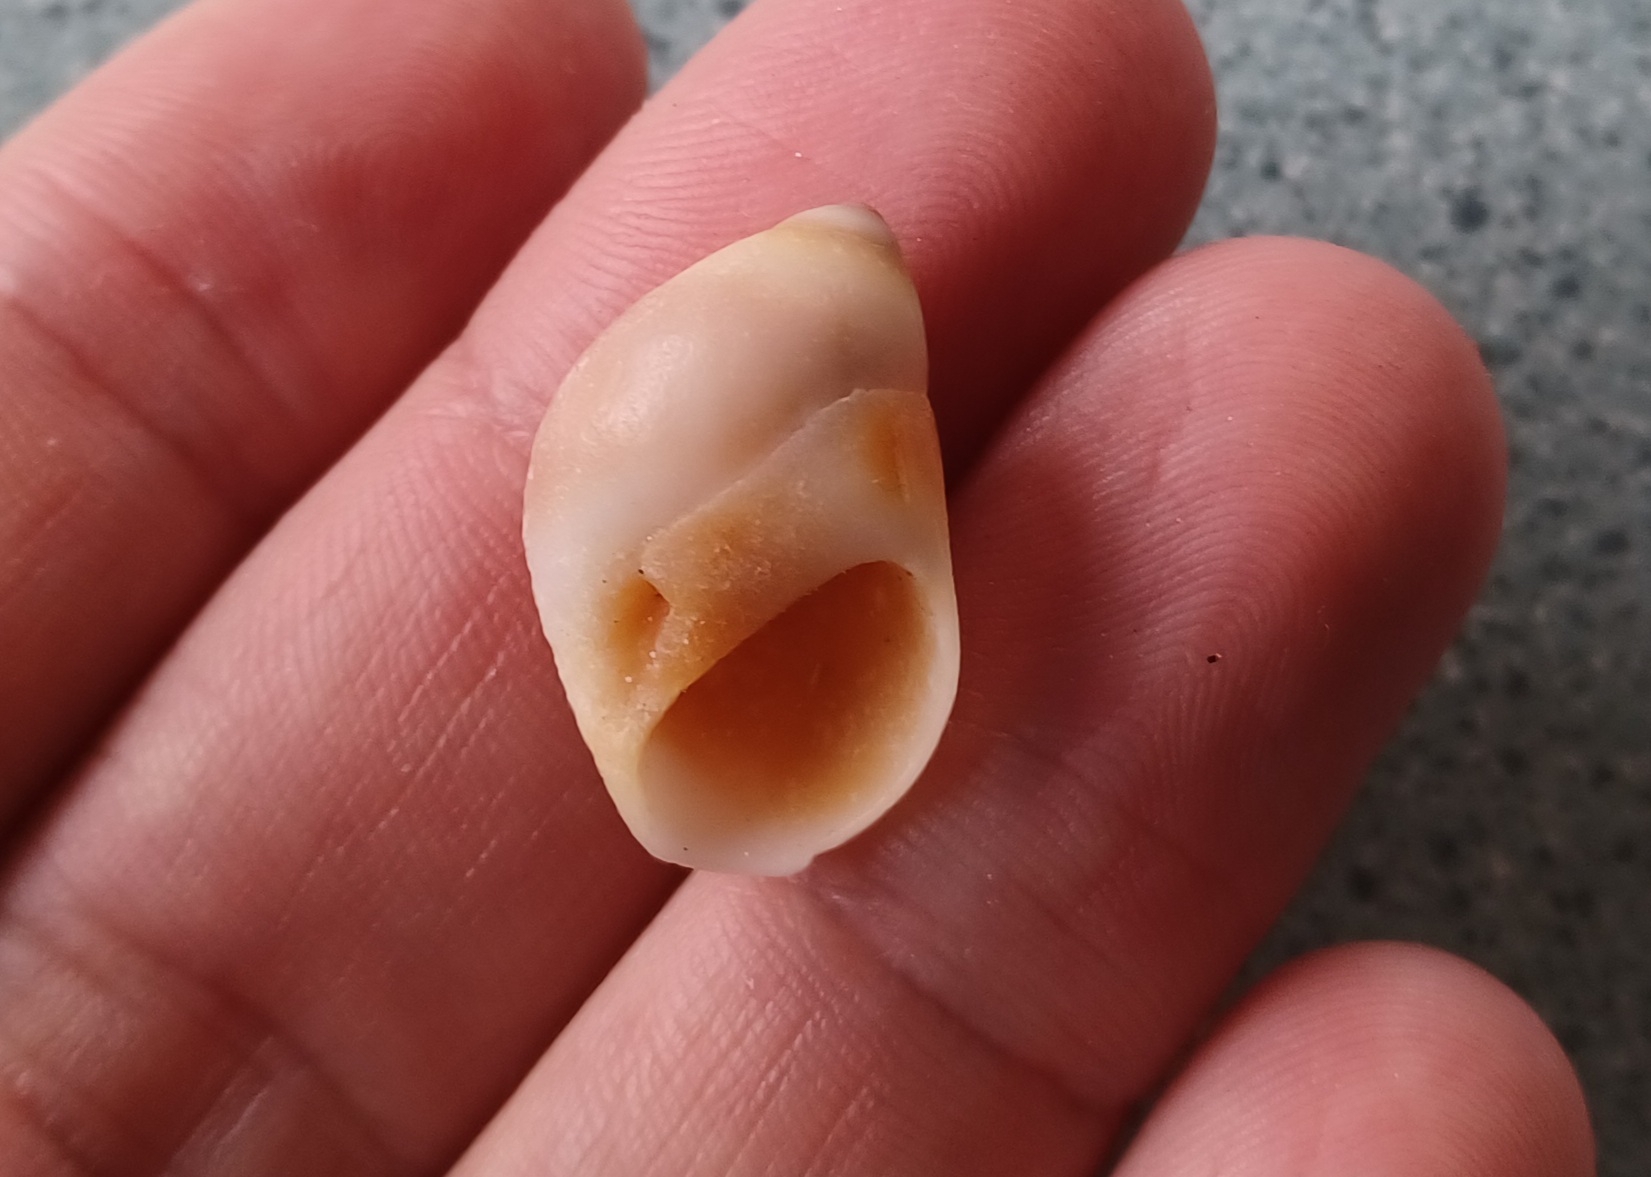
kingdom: Animalia
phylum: Mollusca
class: Gastropoda
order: Littorinimorpha
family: Naticidae
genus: Conuber
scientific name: Conuber conicum
